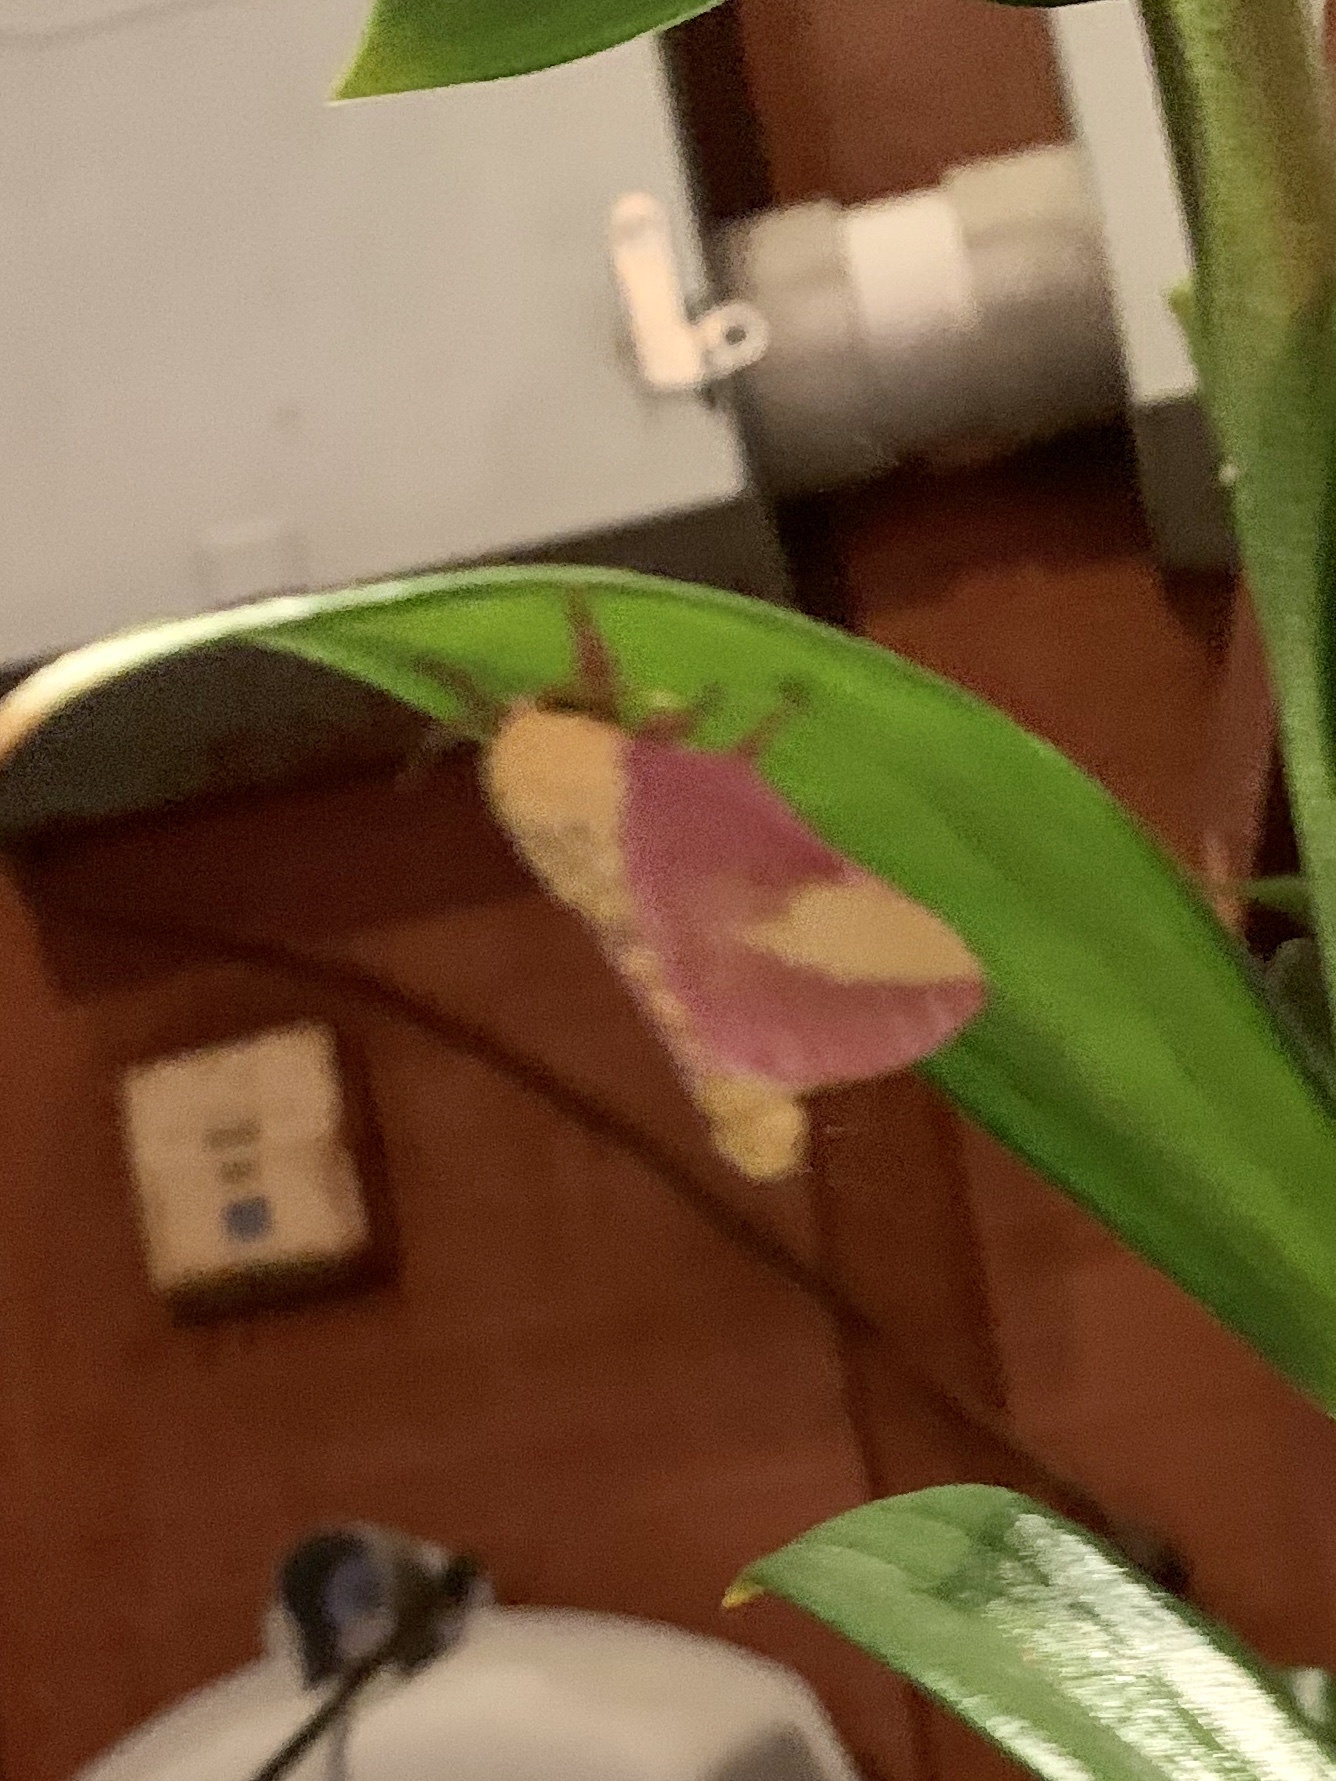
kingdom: Animalia
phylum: Arthropoda
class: Insecta
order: Lepidoptera
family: Saturniidae
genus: Dryocampa
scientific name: Dryocampa rubicunda
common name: Rosy maple moth
